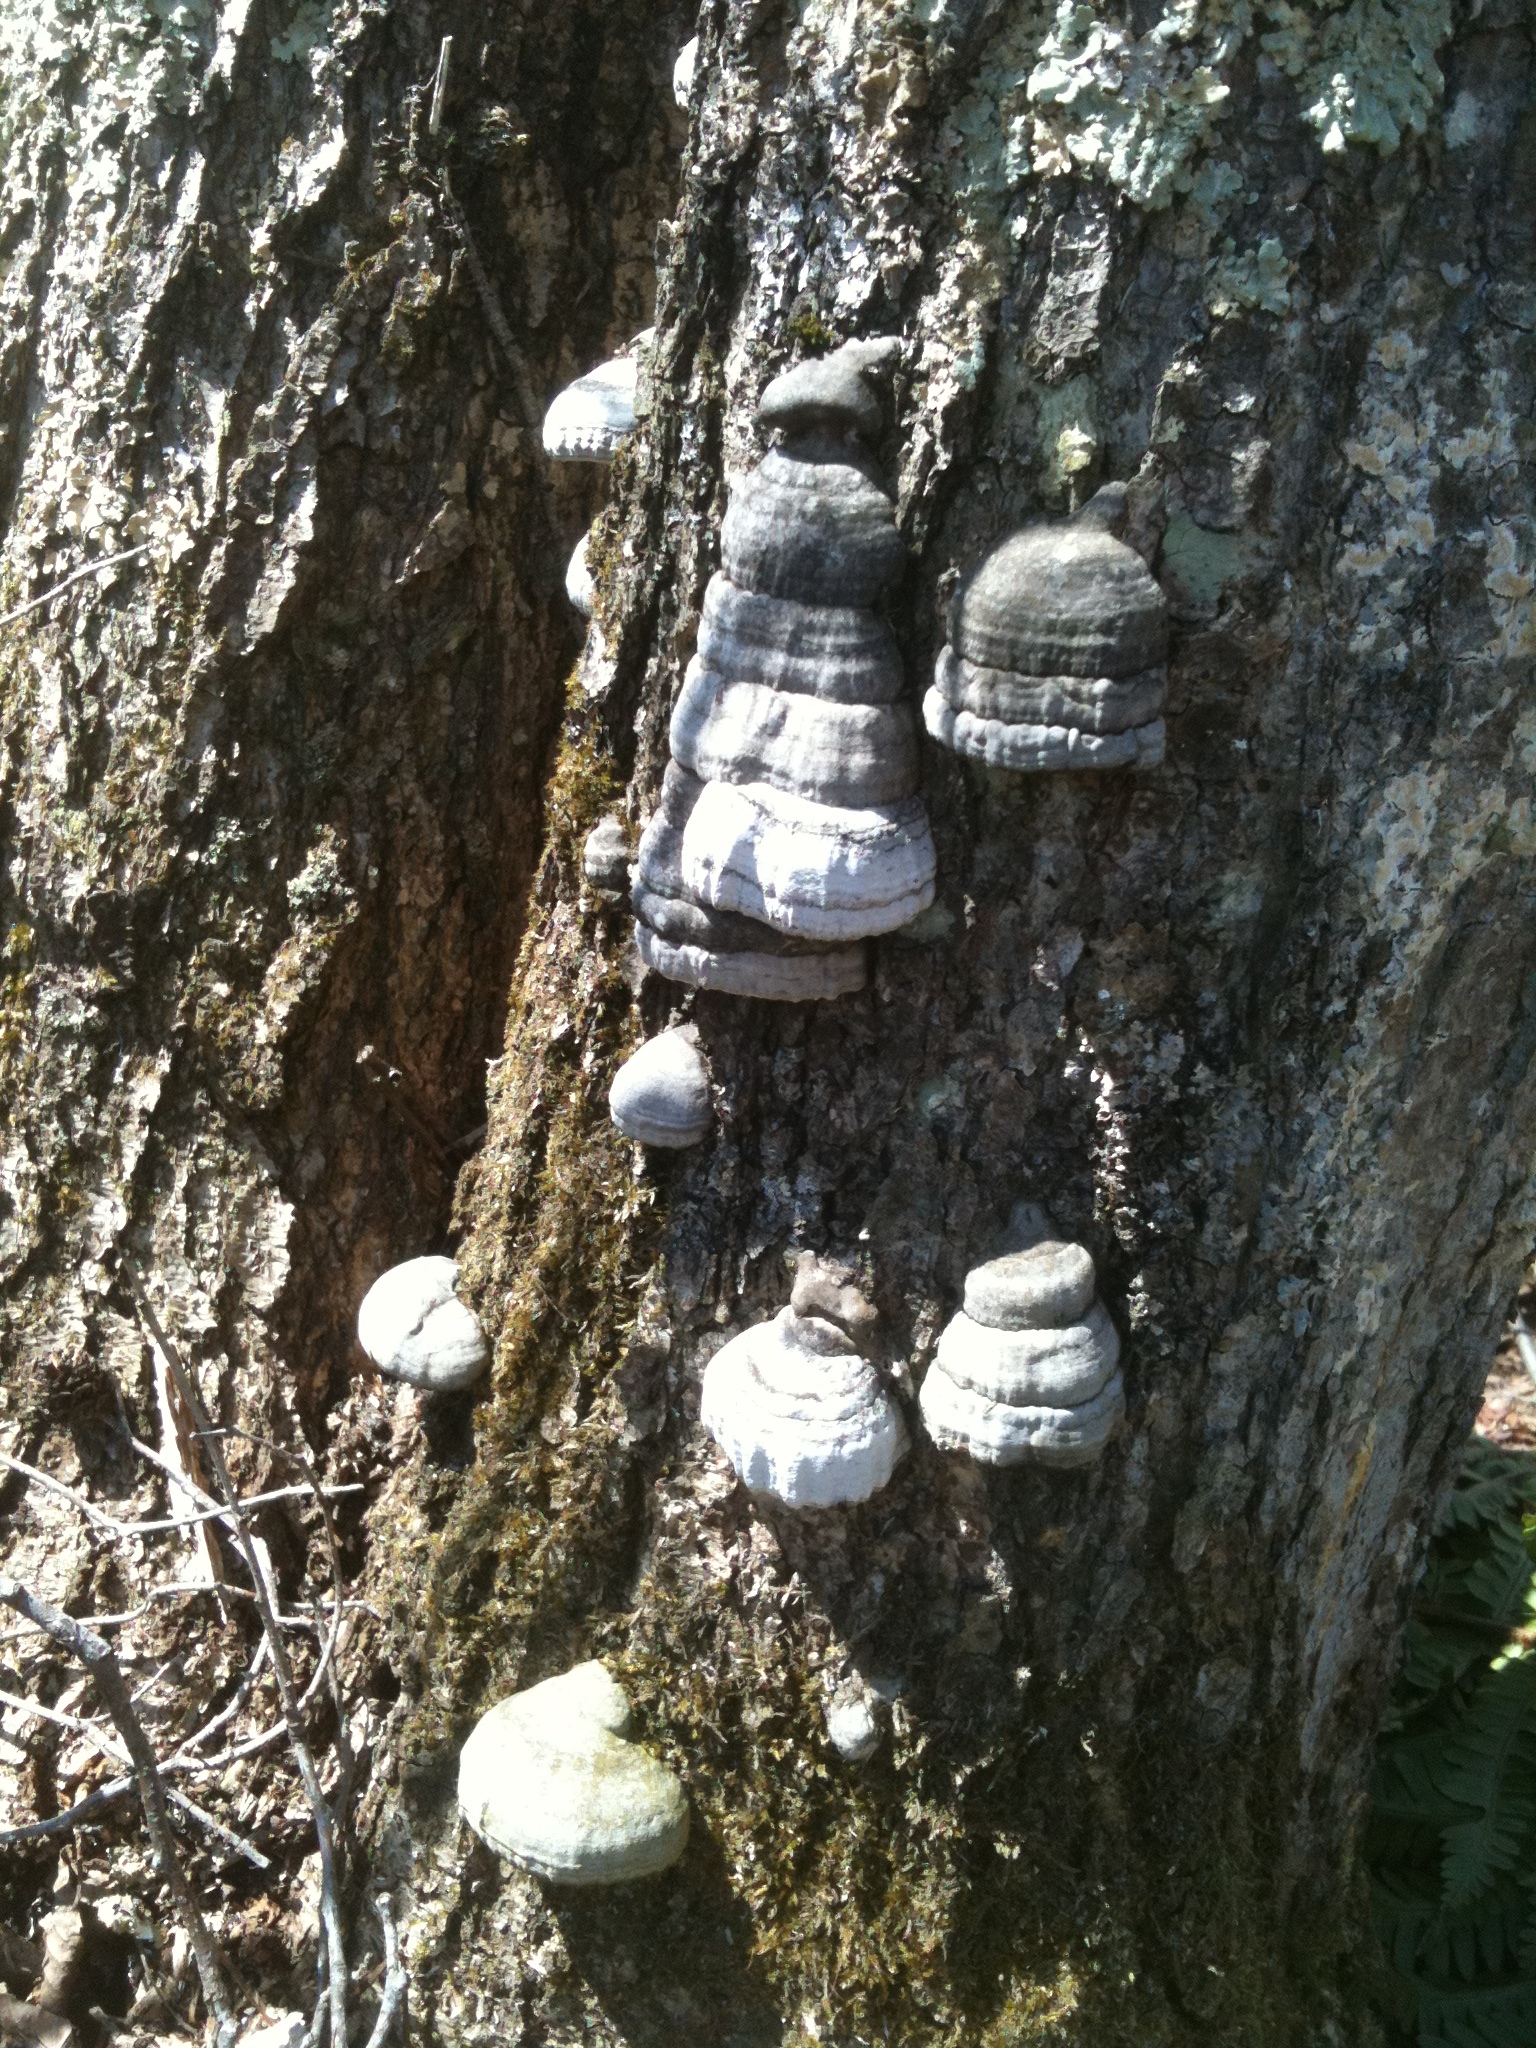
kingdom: Fungi
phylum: Basidiomycota
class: Agaricomycetes
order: Polyporales
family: Polyporaceae
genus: Fomes
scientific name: Fomes fomentarius
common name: Hoof fungus
